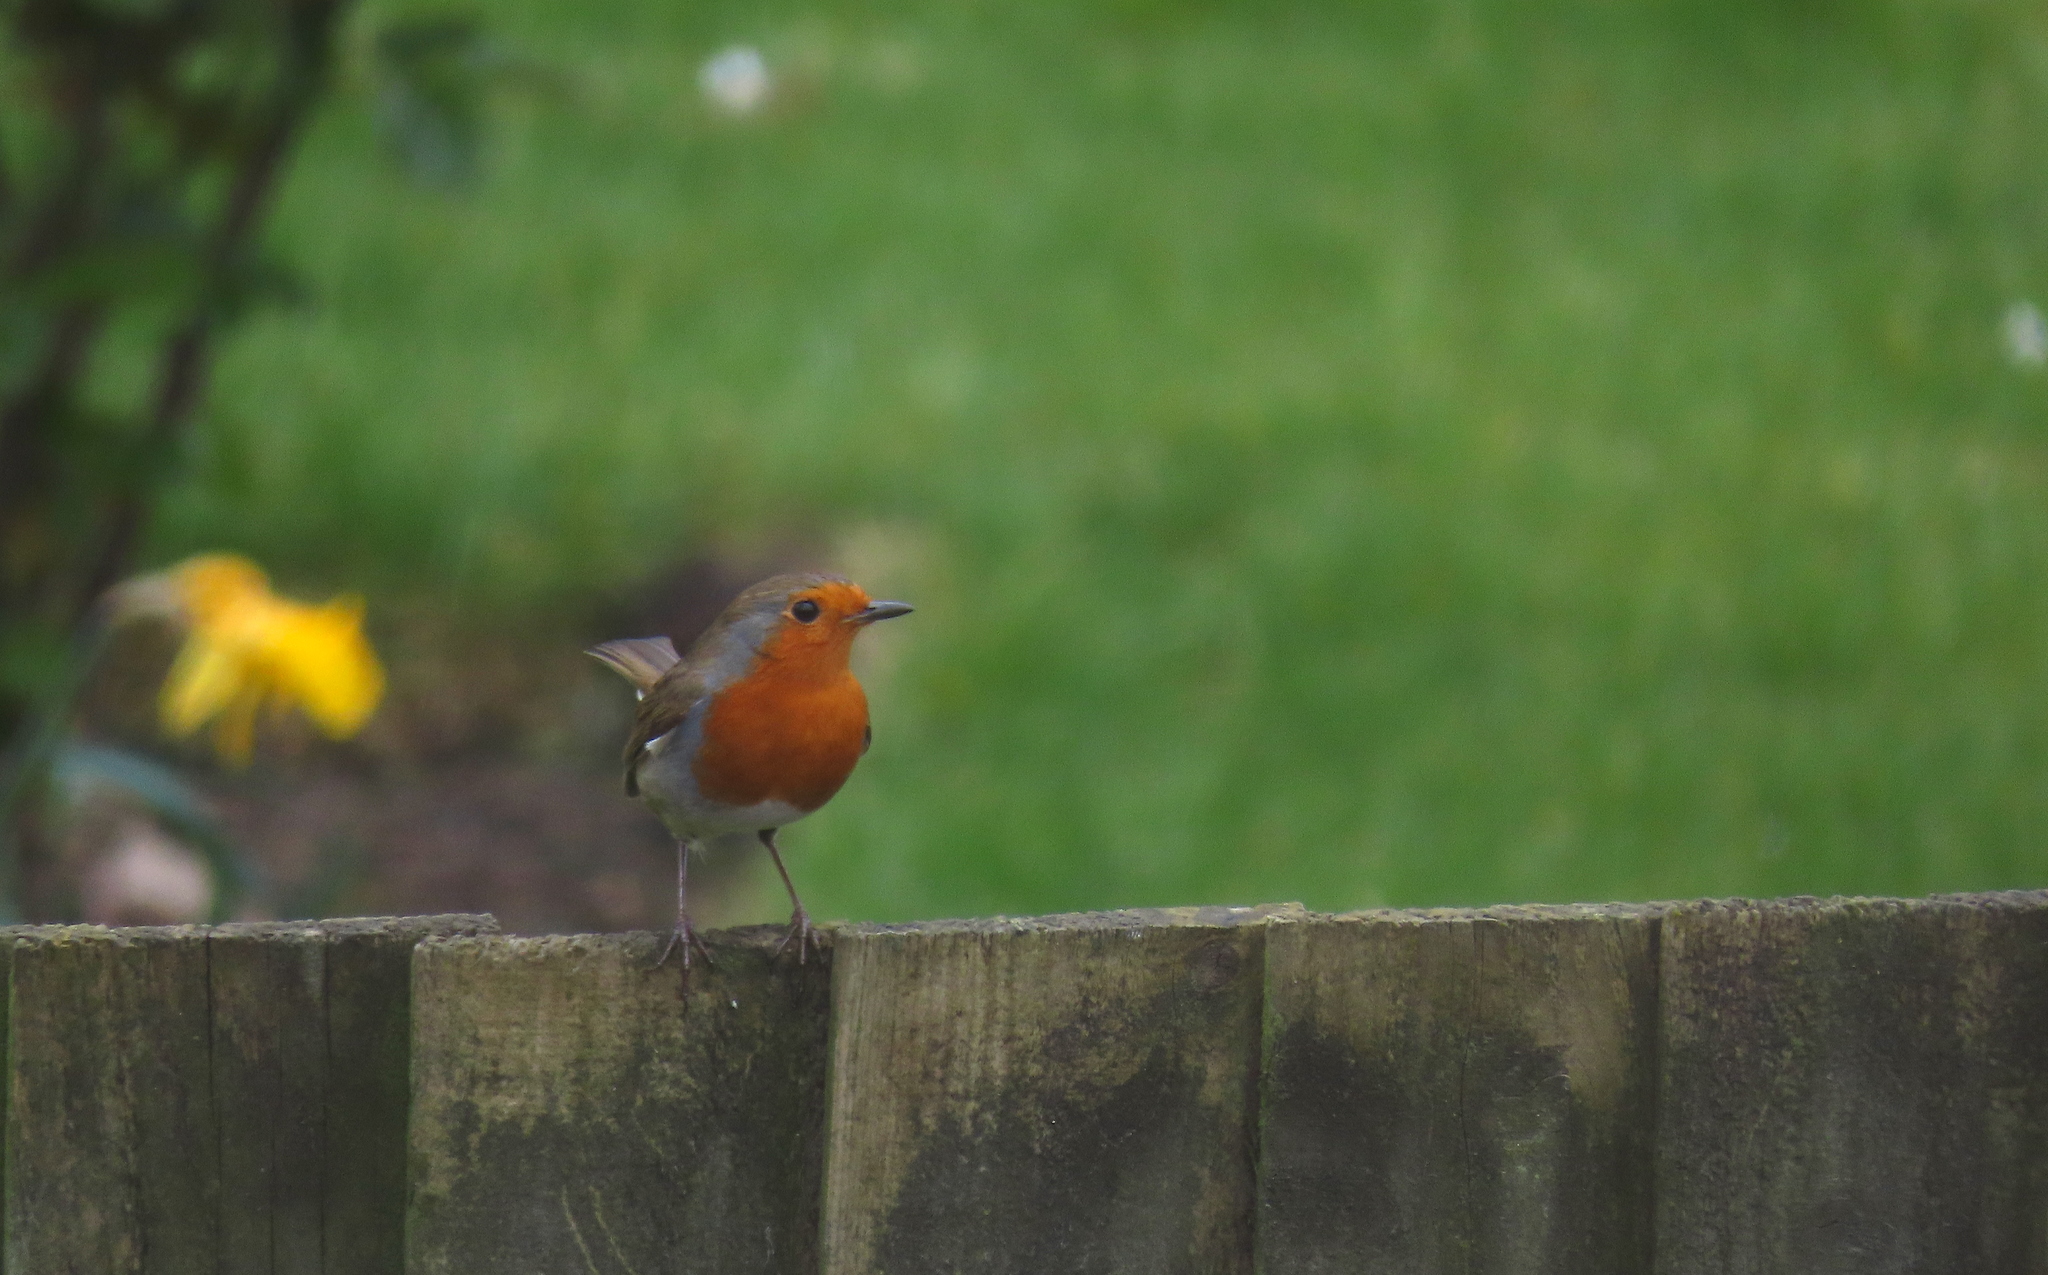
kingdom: Animalia
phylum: Chordata
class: Aves
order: Passeriformes
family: Muscicapidae
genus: Erithacus
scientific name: Erithacus rubecula
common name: European robin
